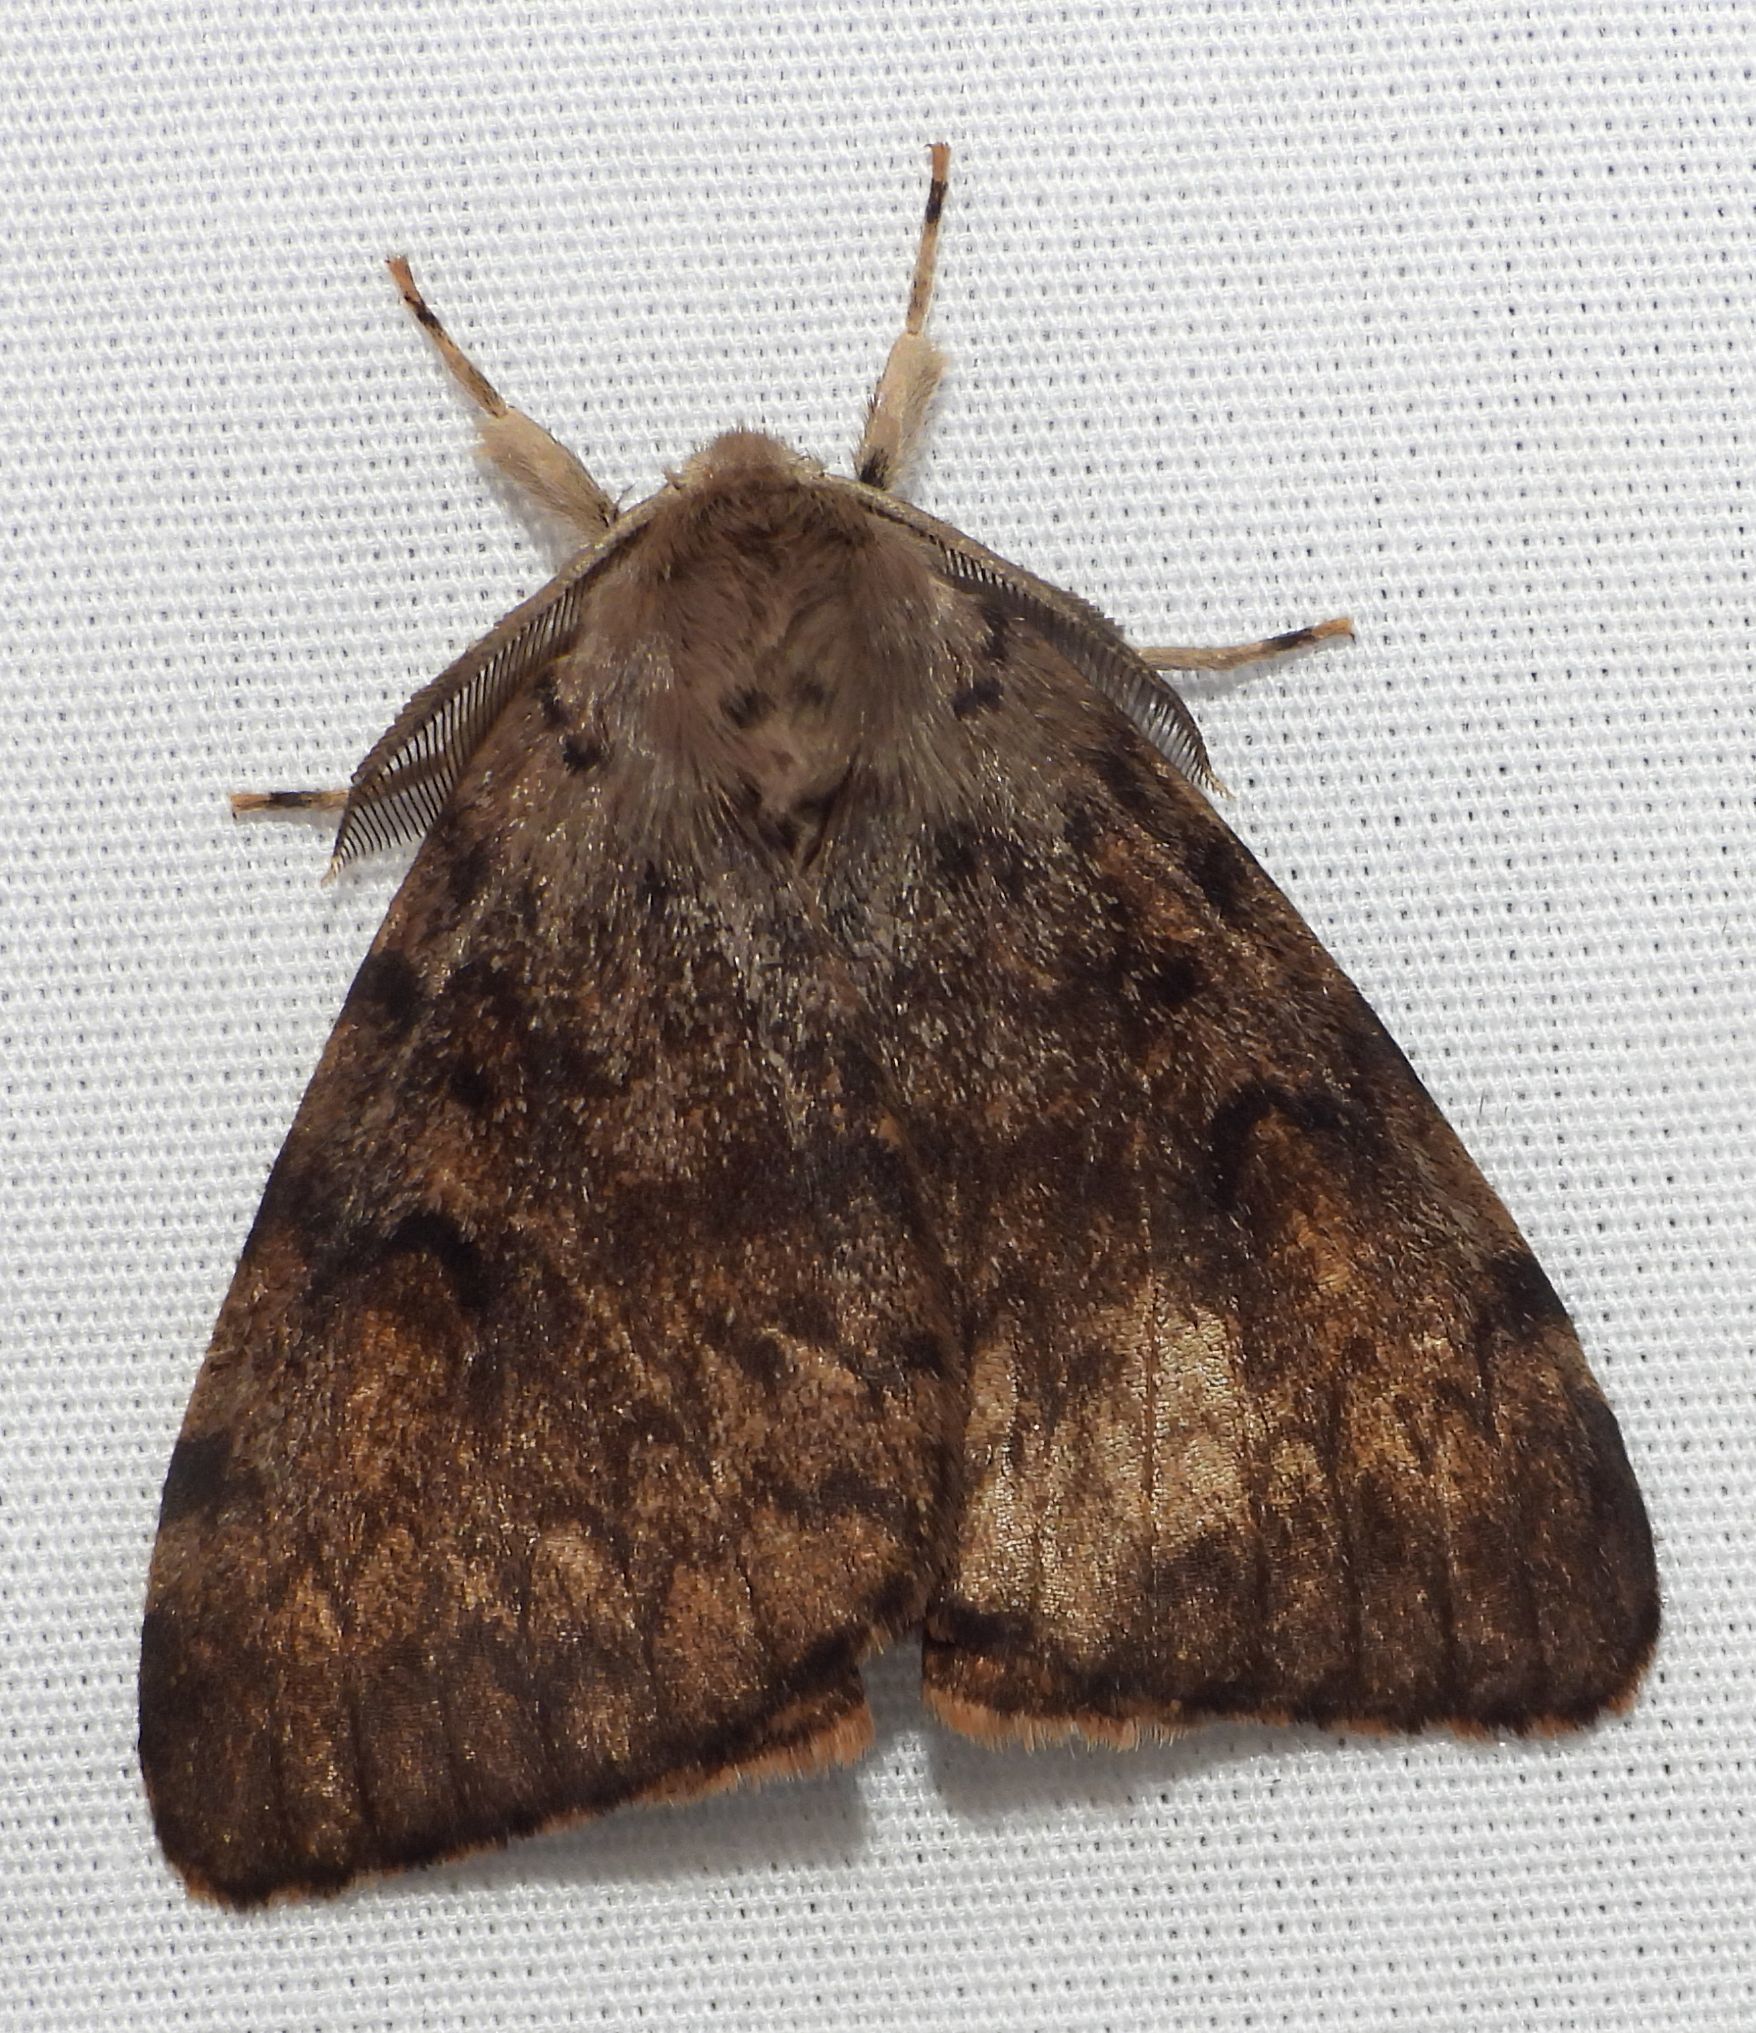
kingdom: Animalia
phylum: Arthropoda
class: Insecta
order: Lepidoptera
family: Erebidae
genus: Lymantria
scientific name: Lymantria dispar
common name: Gypsy moth
